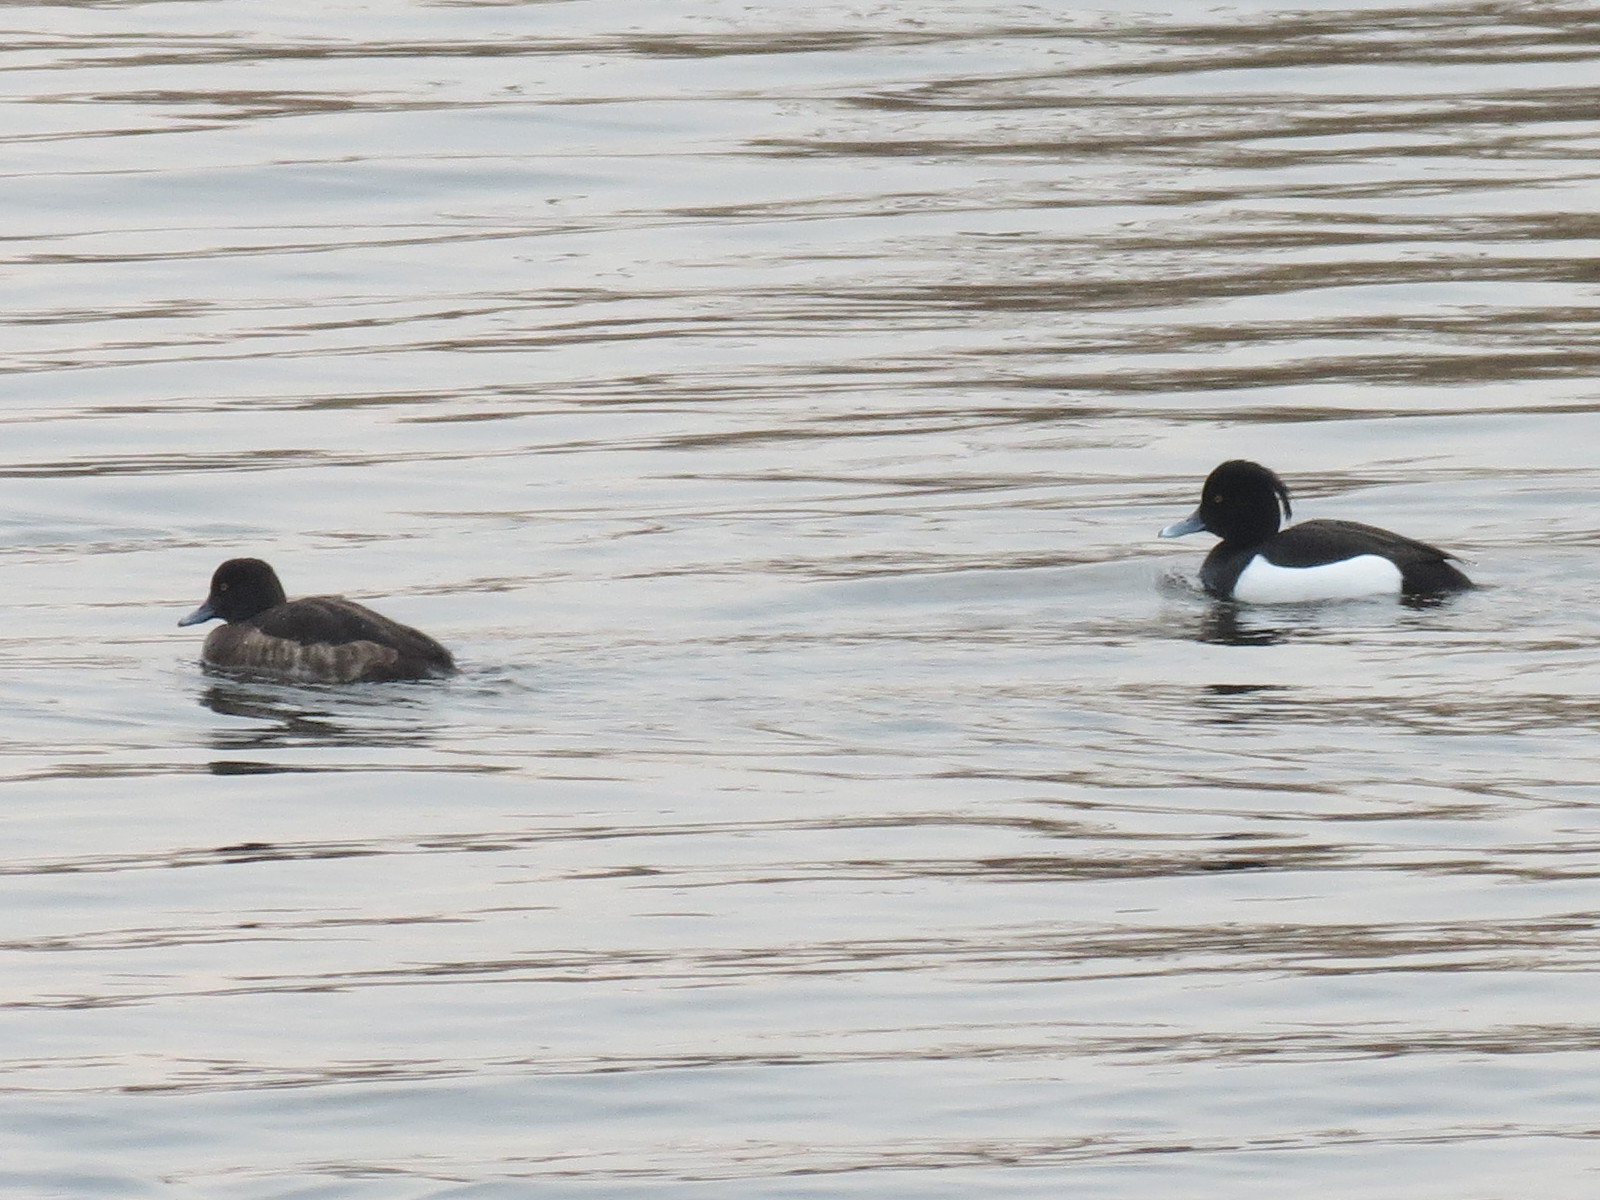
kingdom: Animalia
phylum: Chordata
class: Aves
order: Anseriformes
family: Anatidae
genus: Aythya
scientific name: Aythya fuligula
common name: Tufted duck
